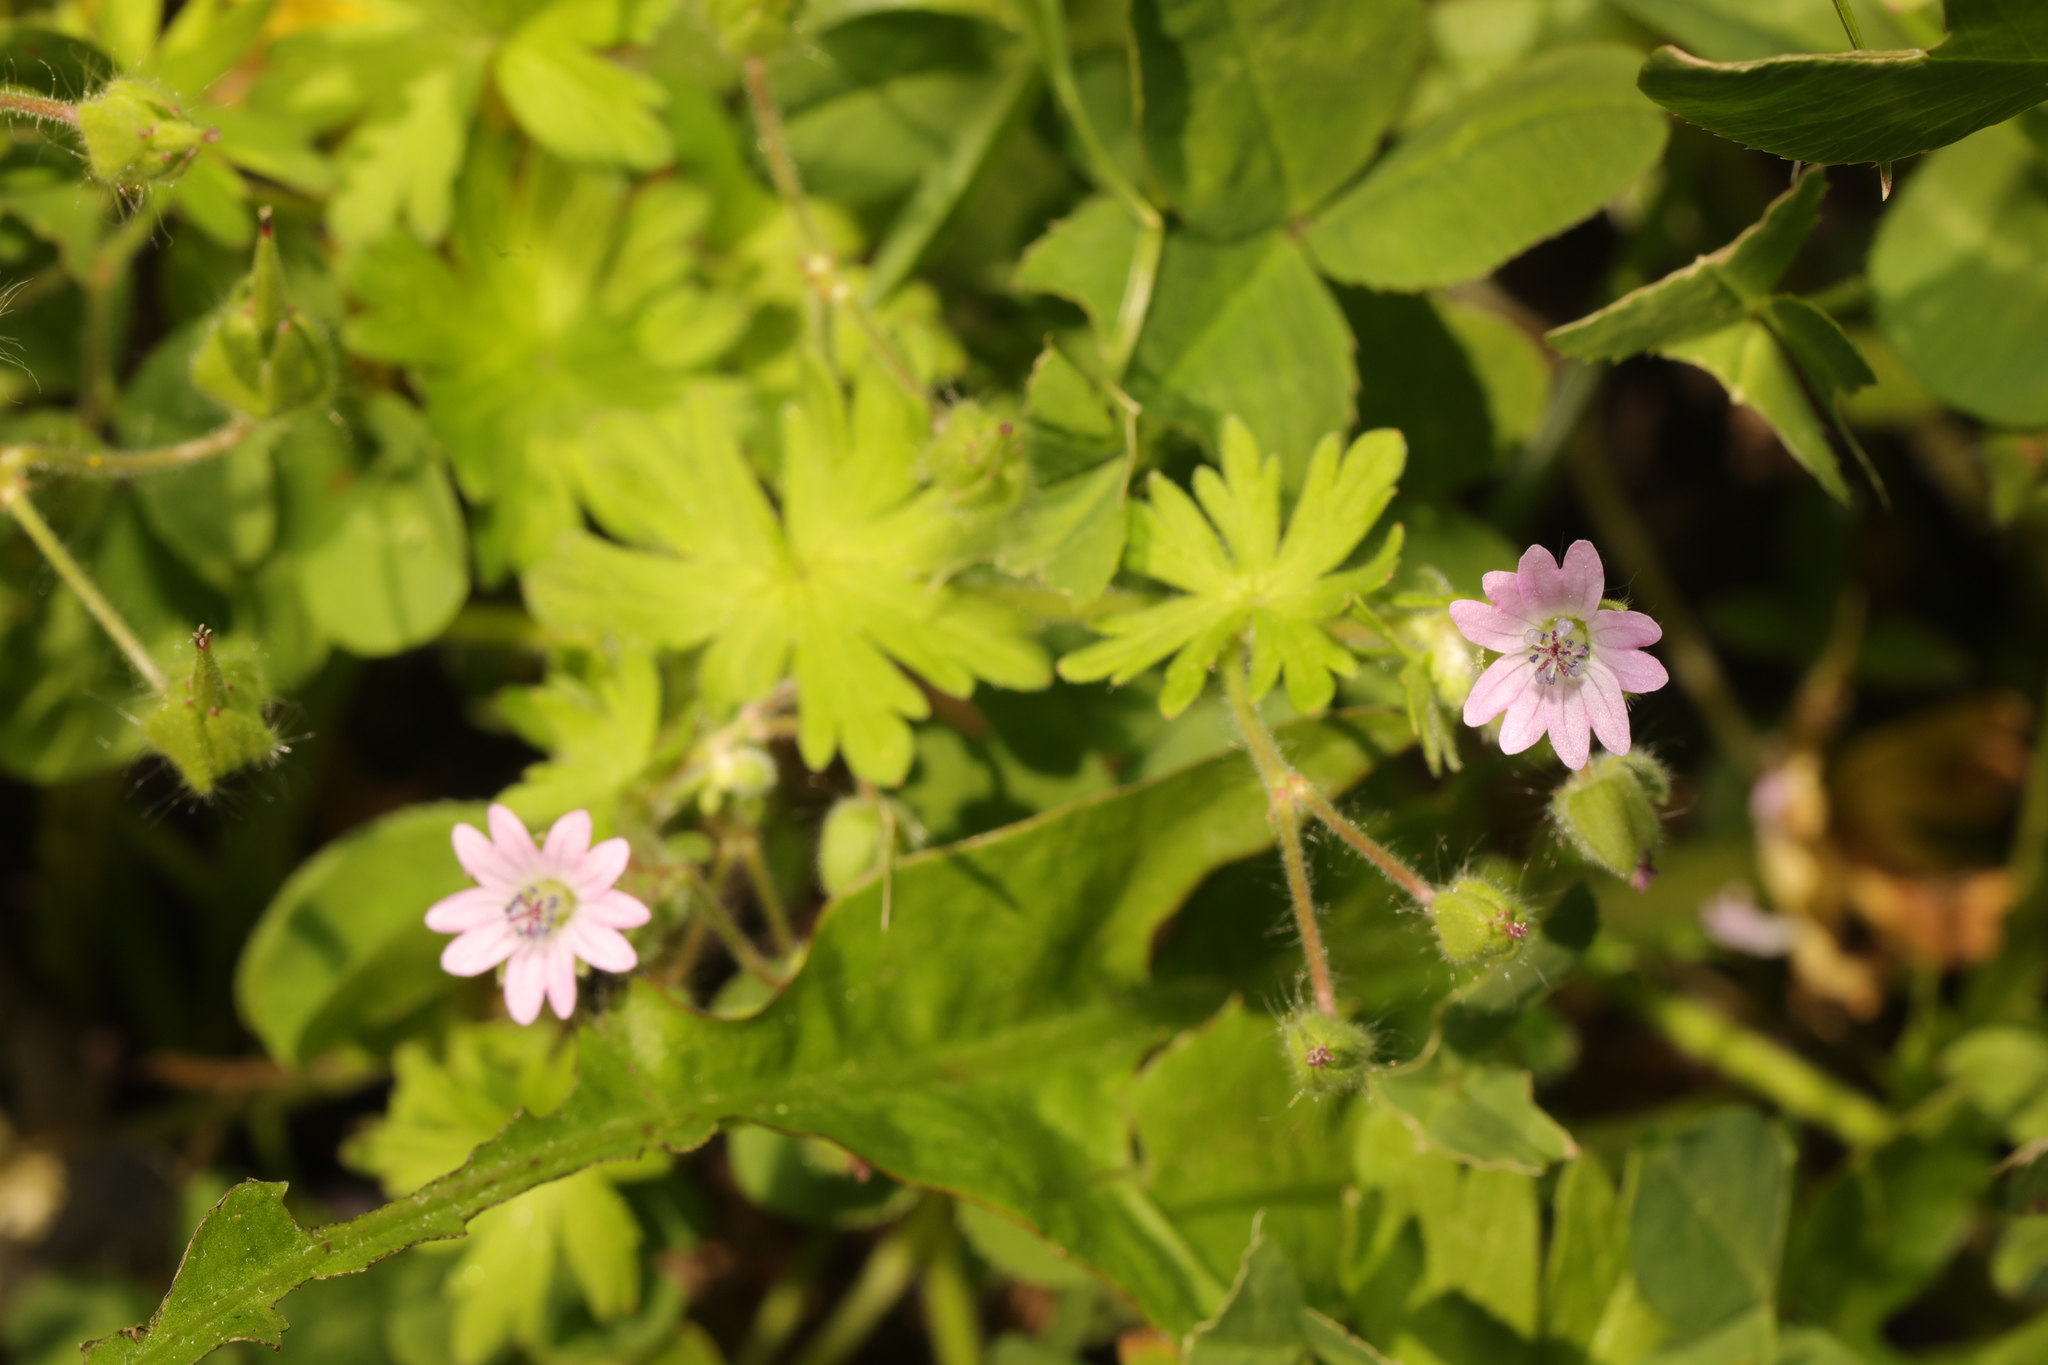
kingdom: Plantae
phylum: Tracheophyta
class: Magnoliopsida
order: Geraniales
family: Geraniaceae
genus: Geranium
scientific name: Geranium molle
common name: Dove's-foot crane's-bill
